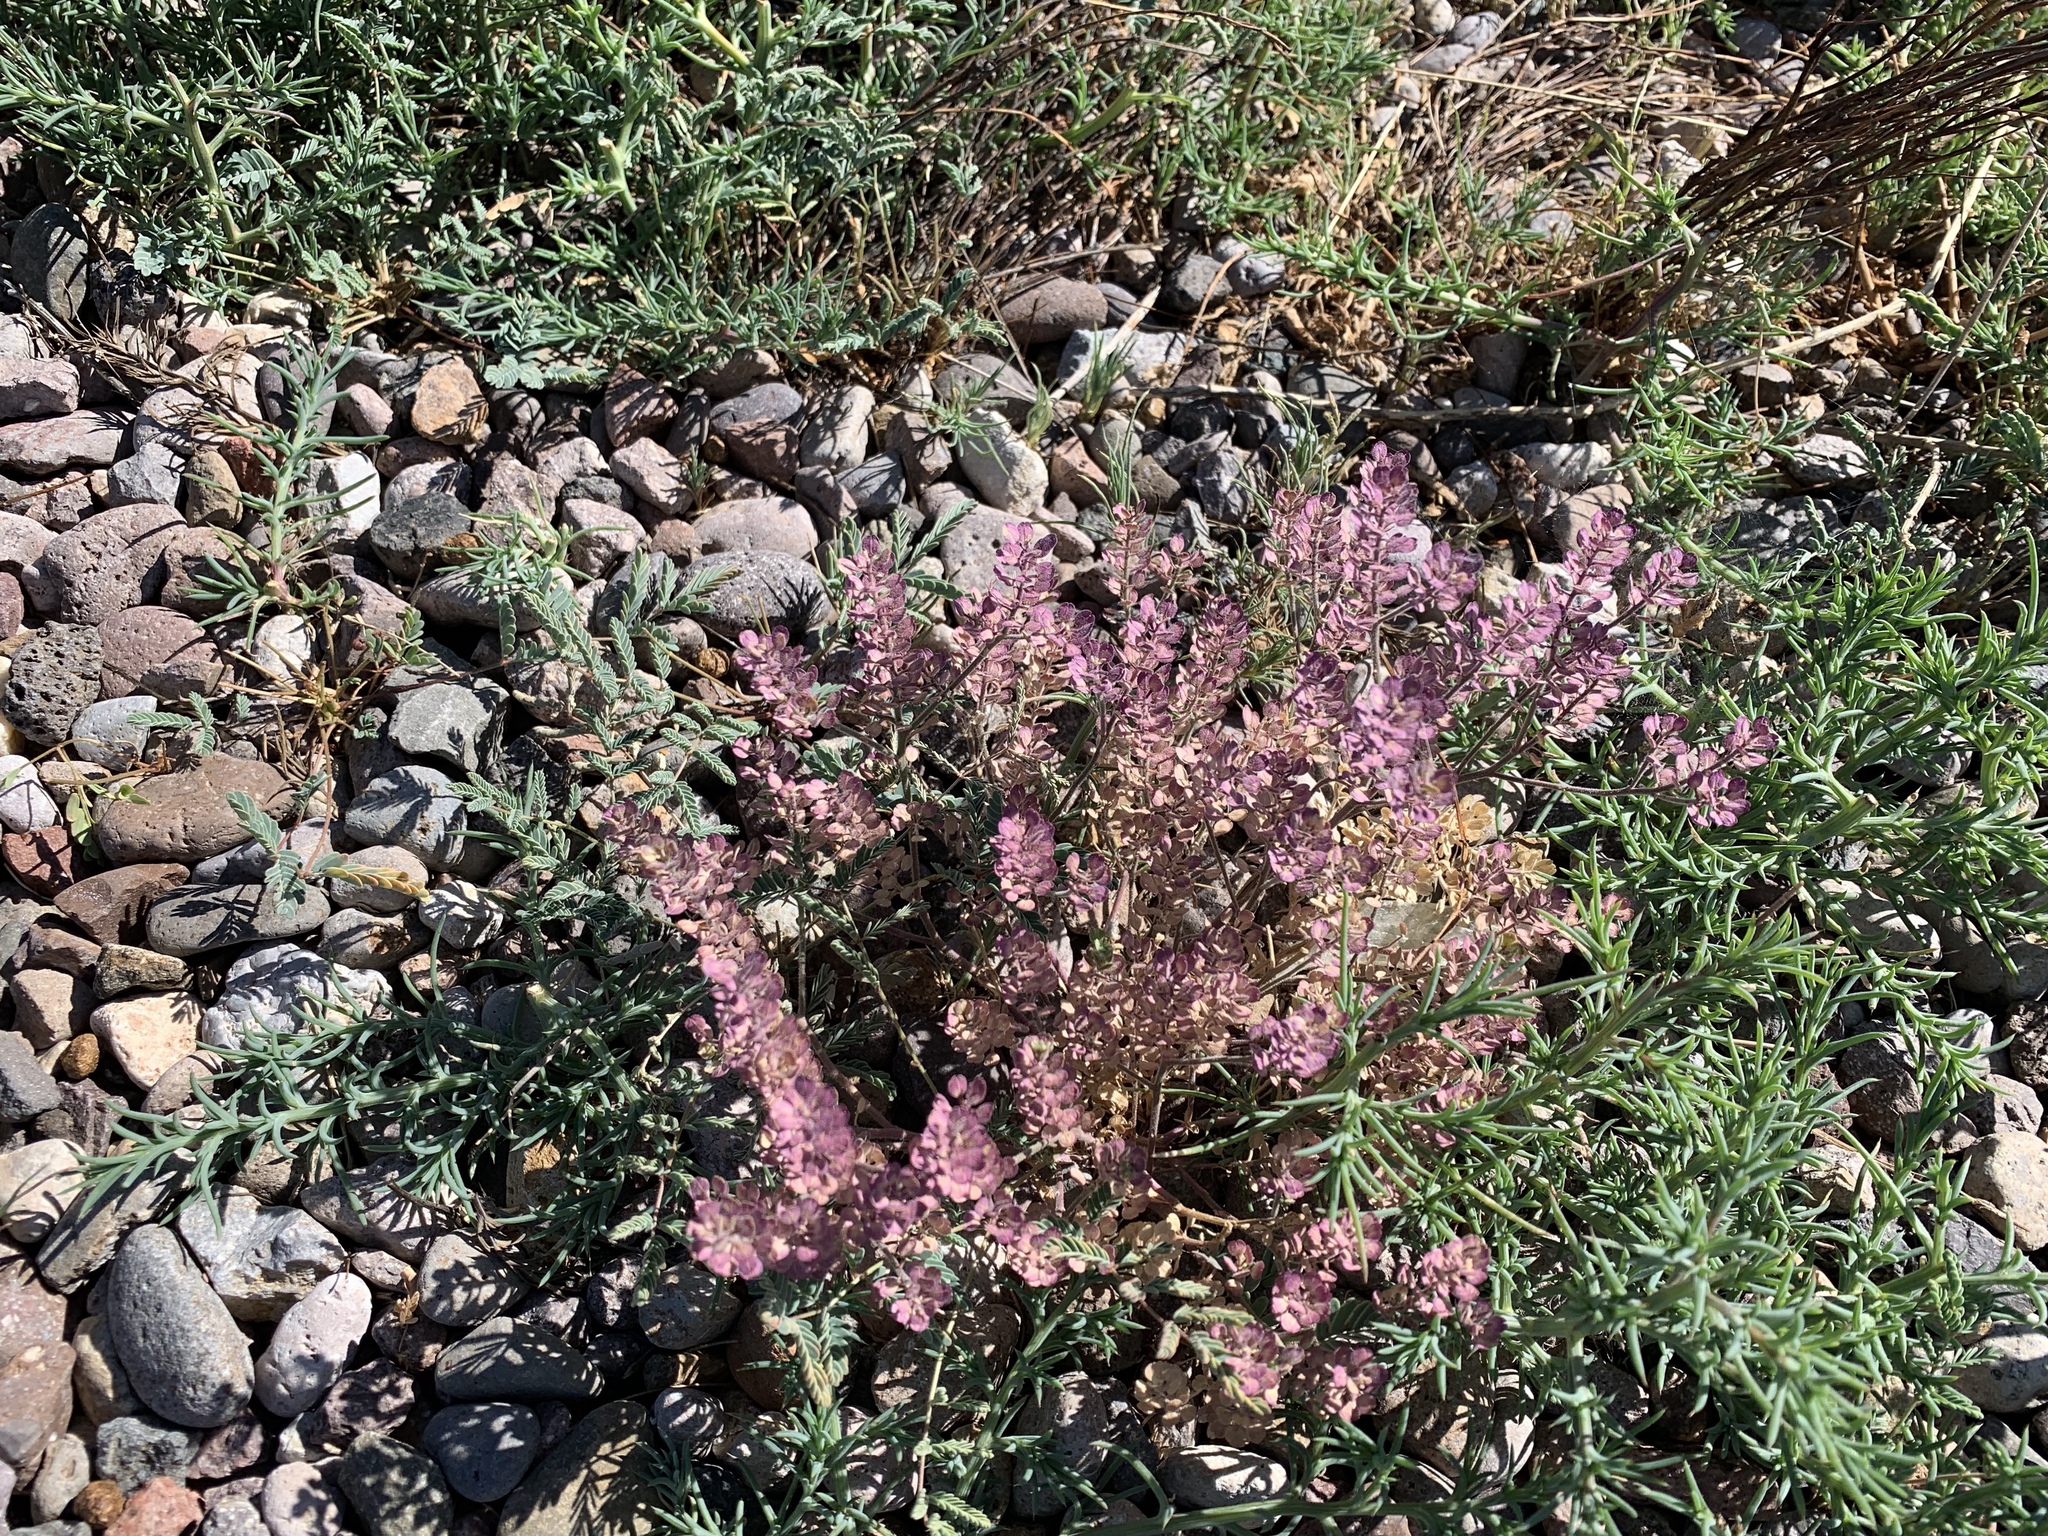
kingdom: Plantae
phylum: Tracheophyta
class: Magnoliopsida
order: Brassicales
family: Brassicaceae
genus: Lepidium
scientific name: Lepidium lasiocarpum
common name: Hairy-pod pepperwort
